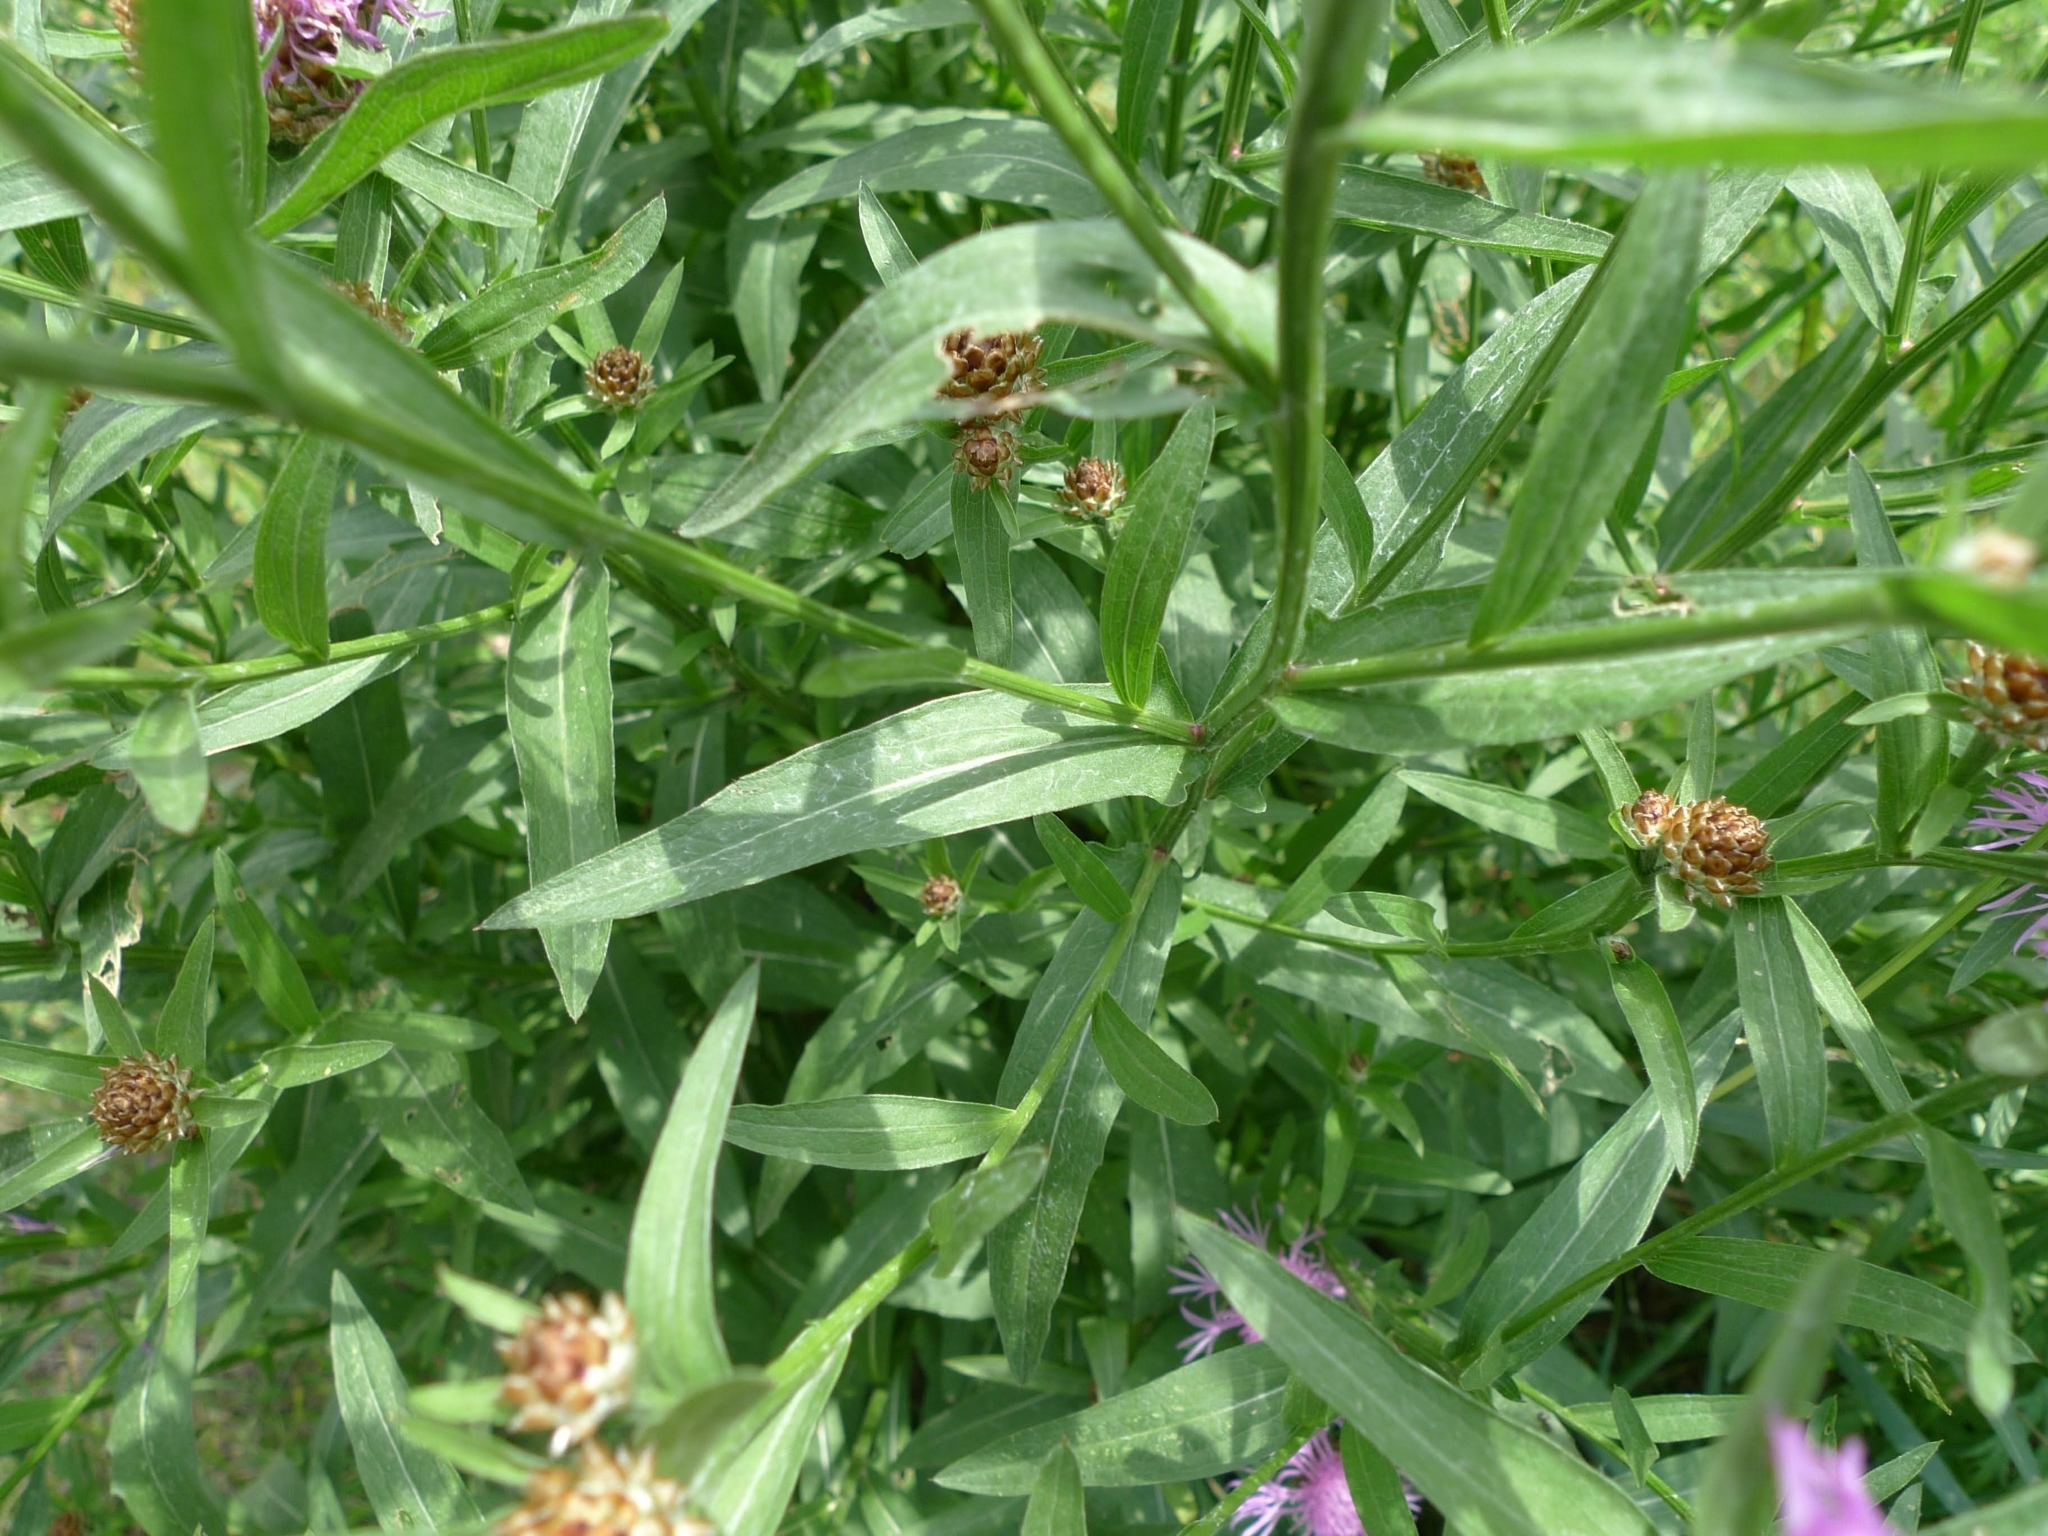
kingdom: Plantae
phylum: Tracheophyta
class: Magnoliopsida
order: Asterales
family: Asteraceae
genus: Centaurea
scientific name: Centaurea jacea
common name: Brown knapweed
